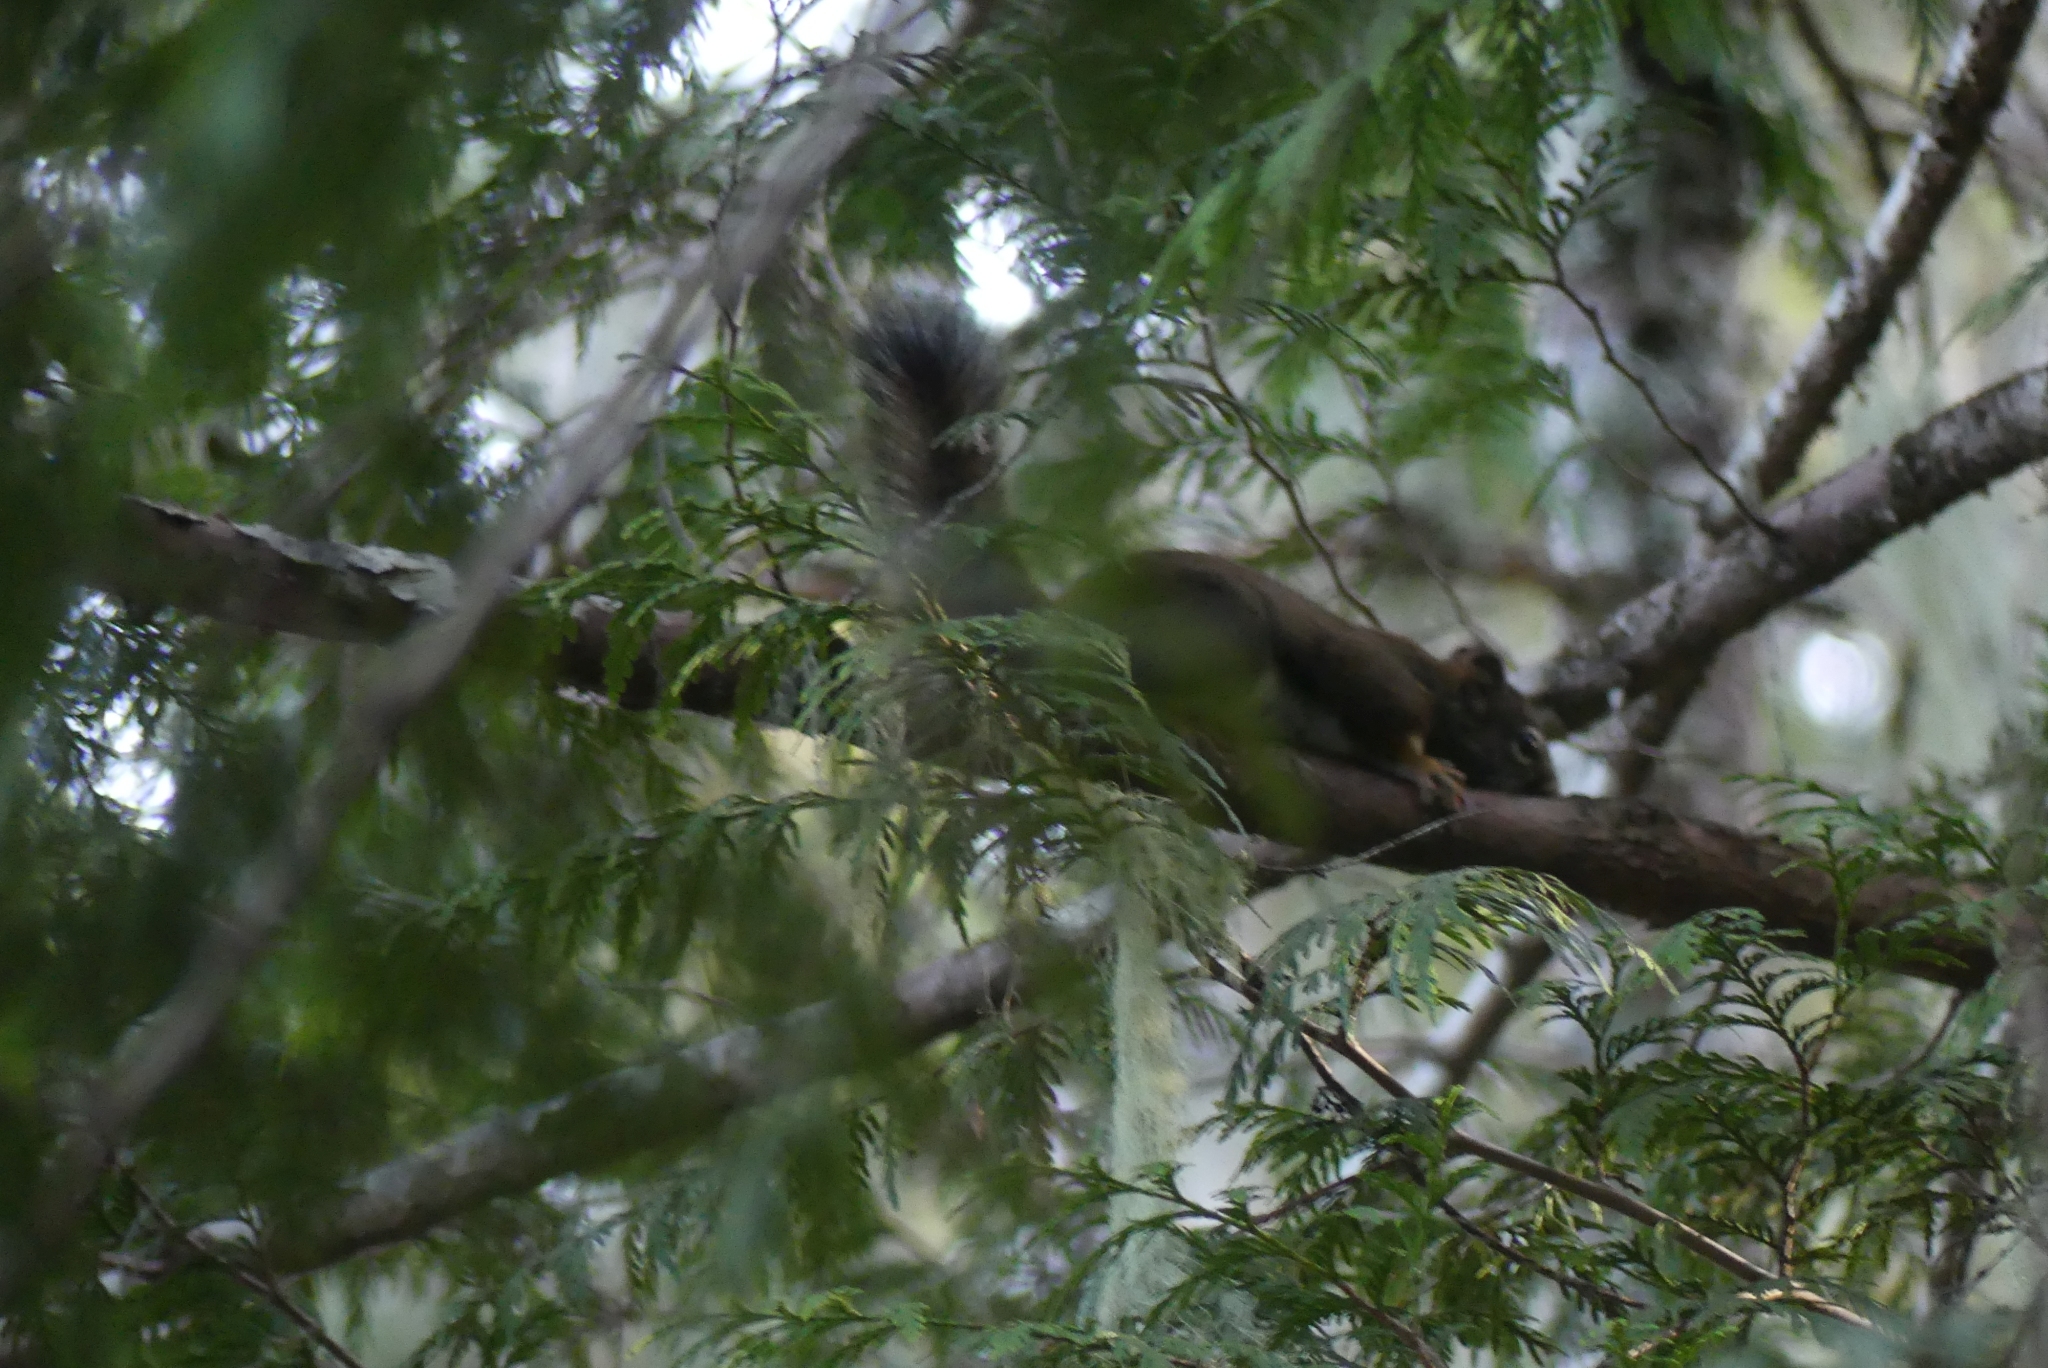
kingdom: Animalia
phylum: Chordata
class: Mammalia
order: Rodentia
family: Sciuridae
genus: Tamiasciurus
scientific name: Tamiasciurus hudsonicus
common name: Red squirrel
